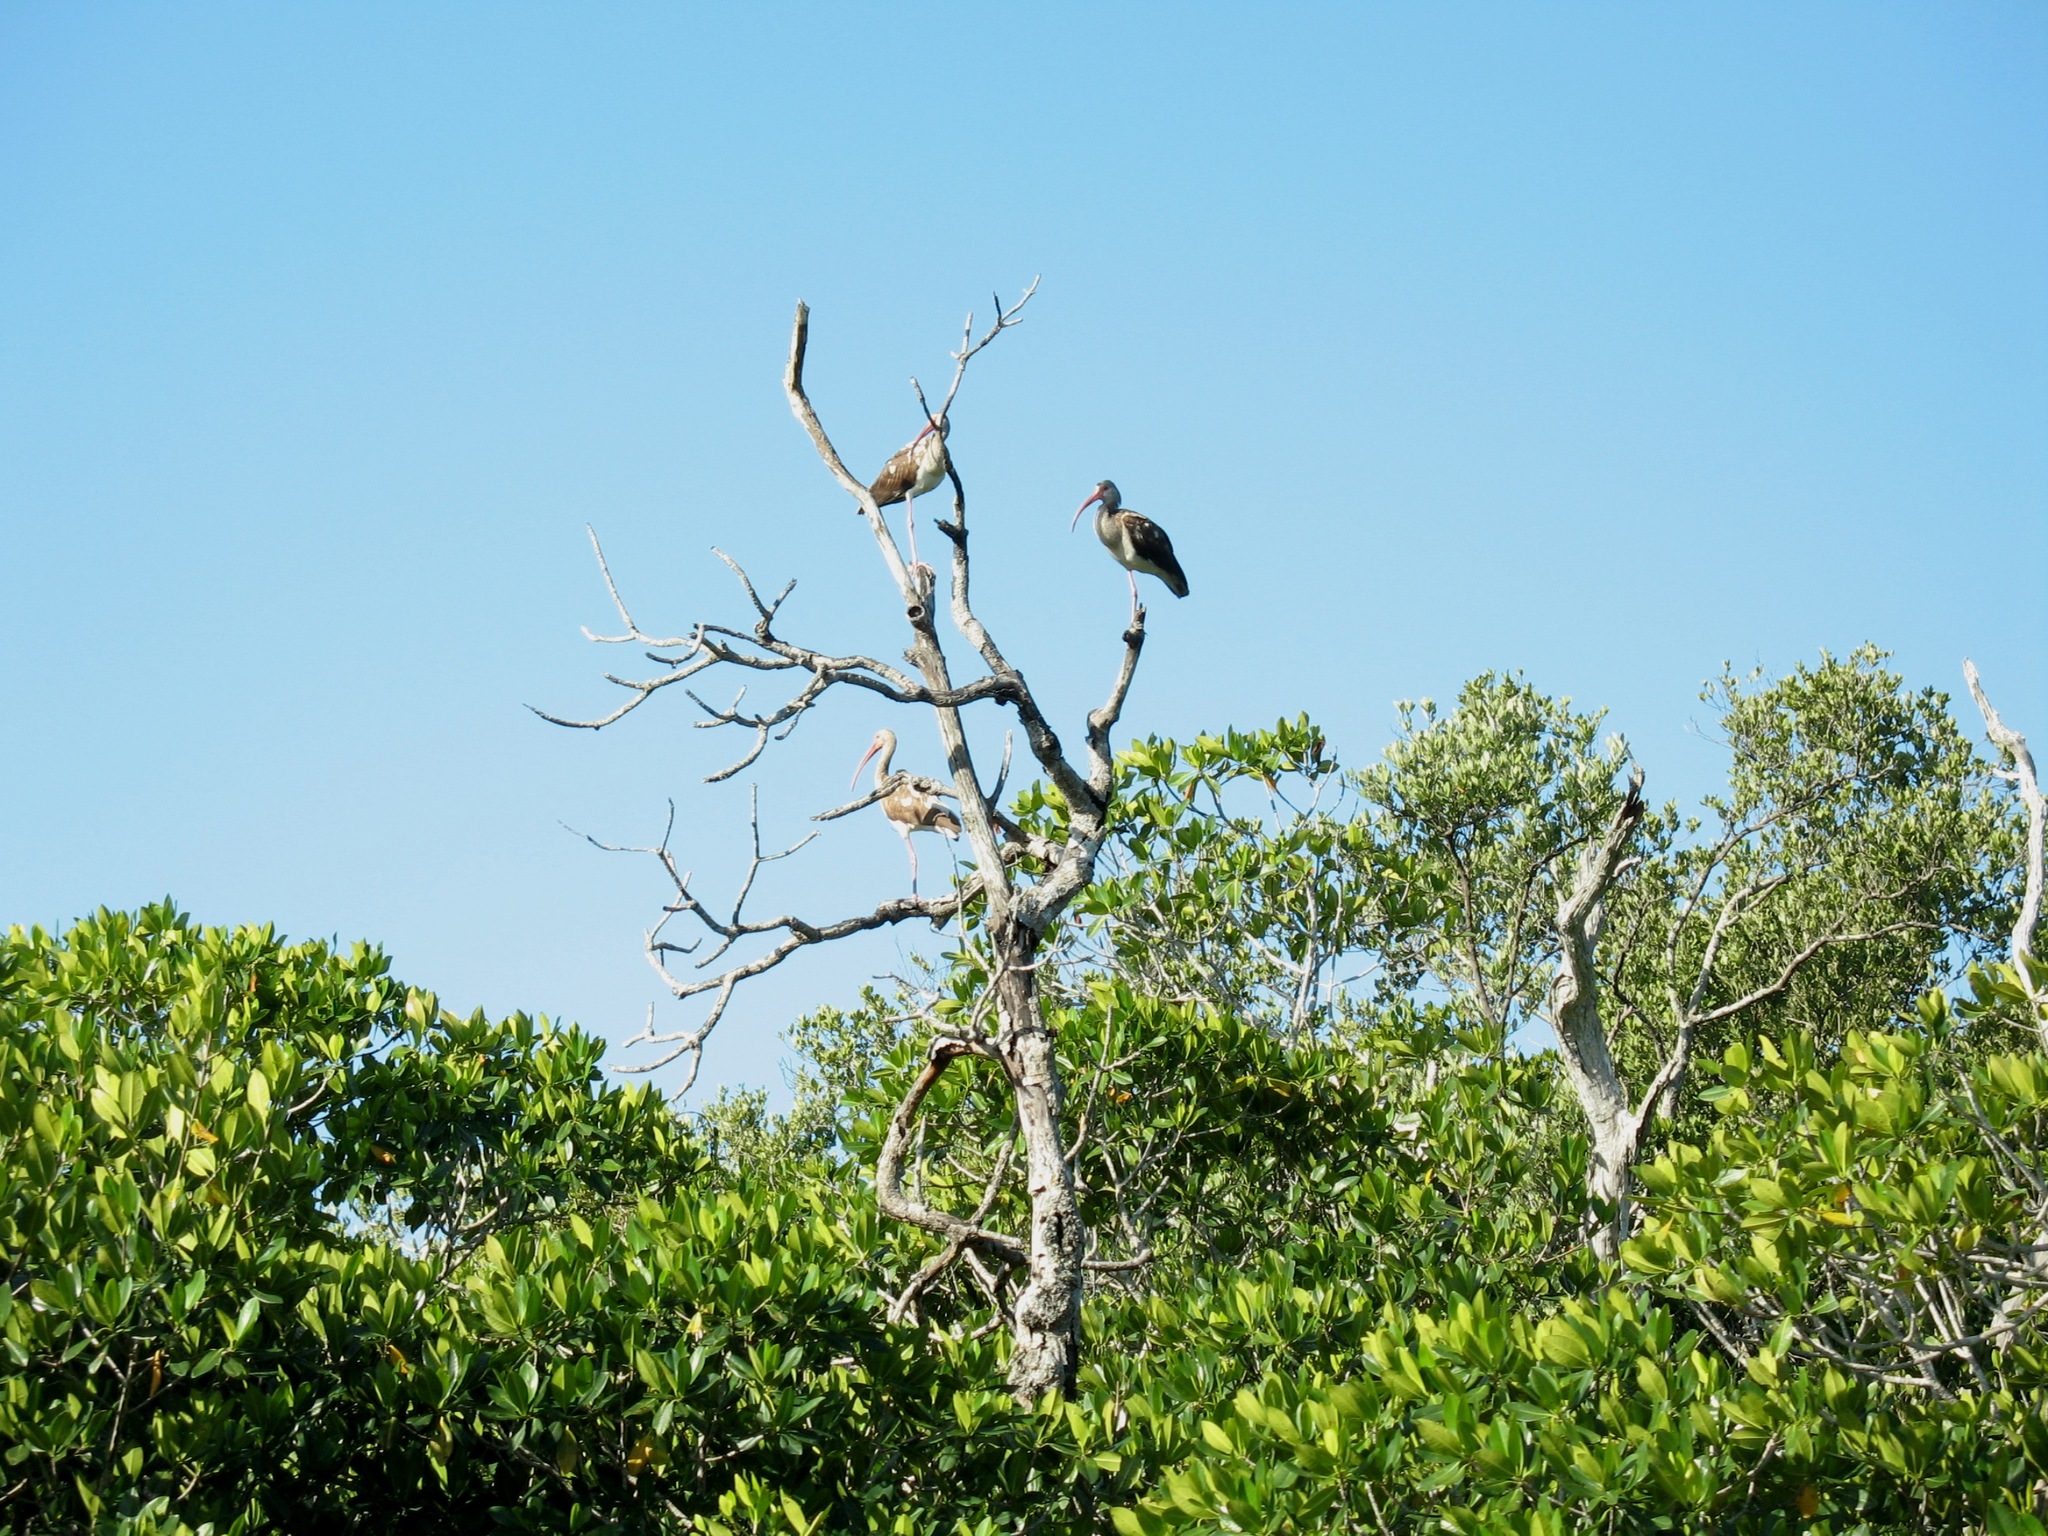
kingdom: Animalia
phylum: Chordata
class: Aves
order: Pelecaniformes
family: Threskiornithidae
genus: Eudocimus
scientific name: Eudocimus albus
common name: White ibis
